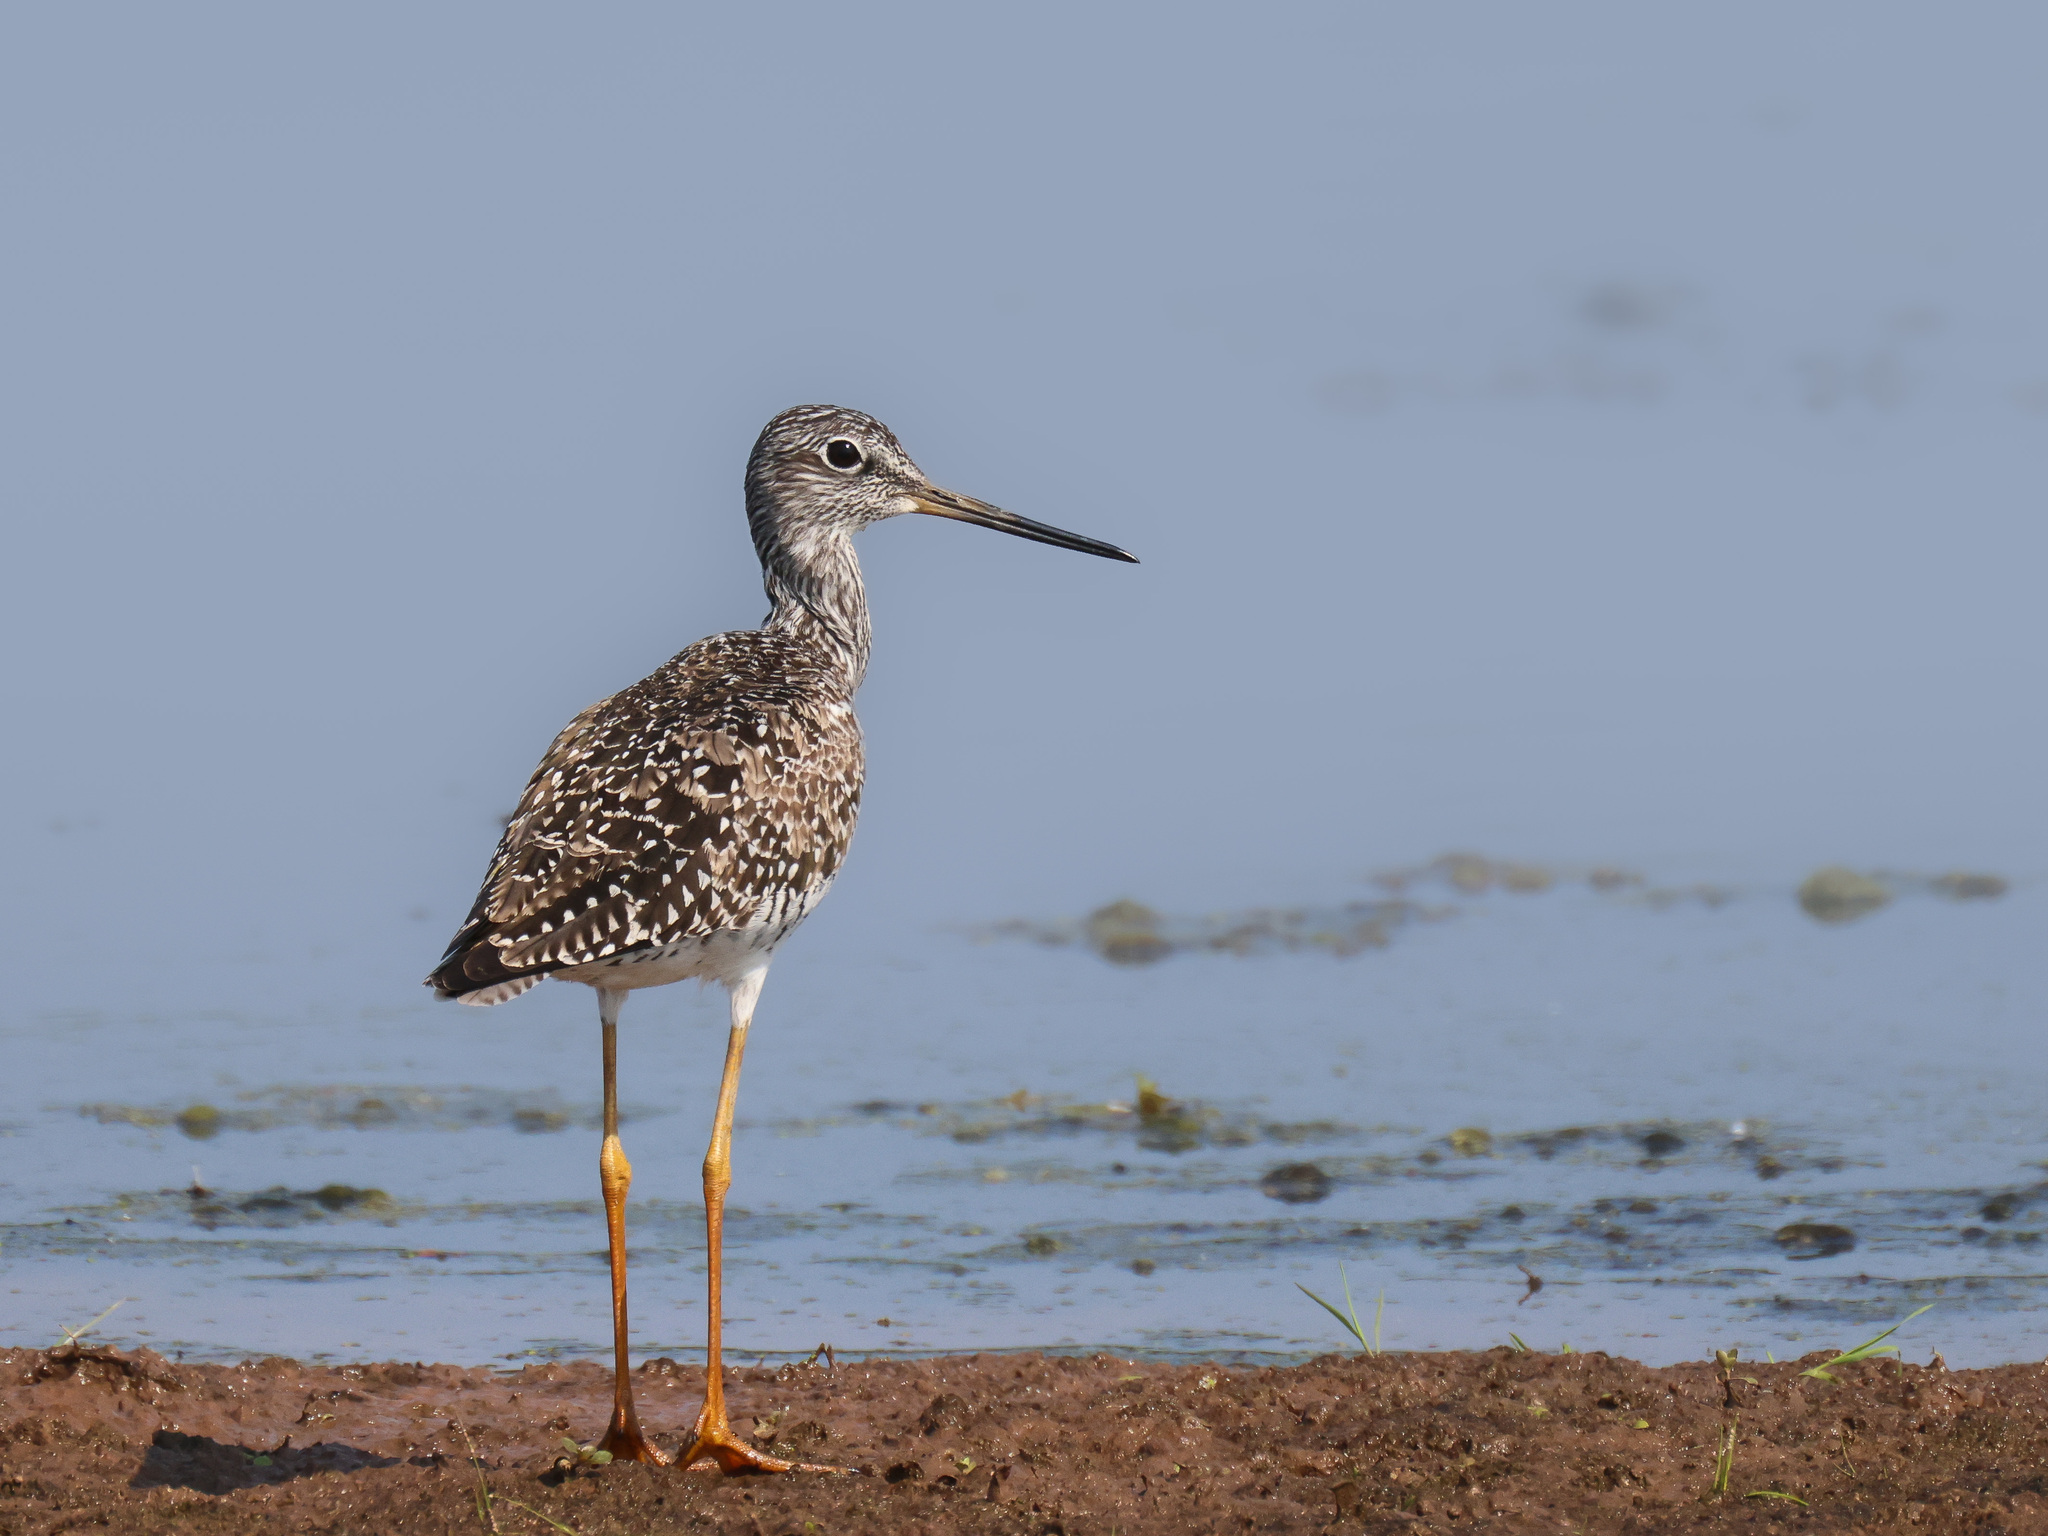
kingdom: Animalia
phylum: Chordata
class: Aves
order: Charadriiformes
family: Scolopacidae
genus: Tringa
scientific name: Tringa melanoleuca
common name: Greater yellowlegs
